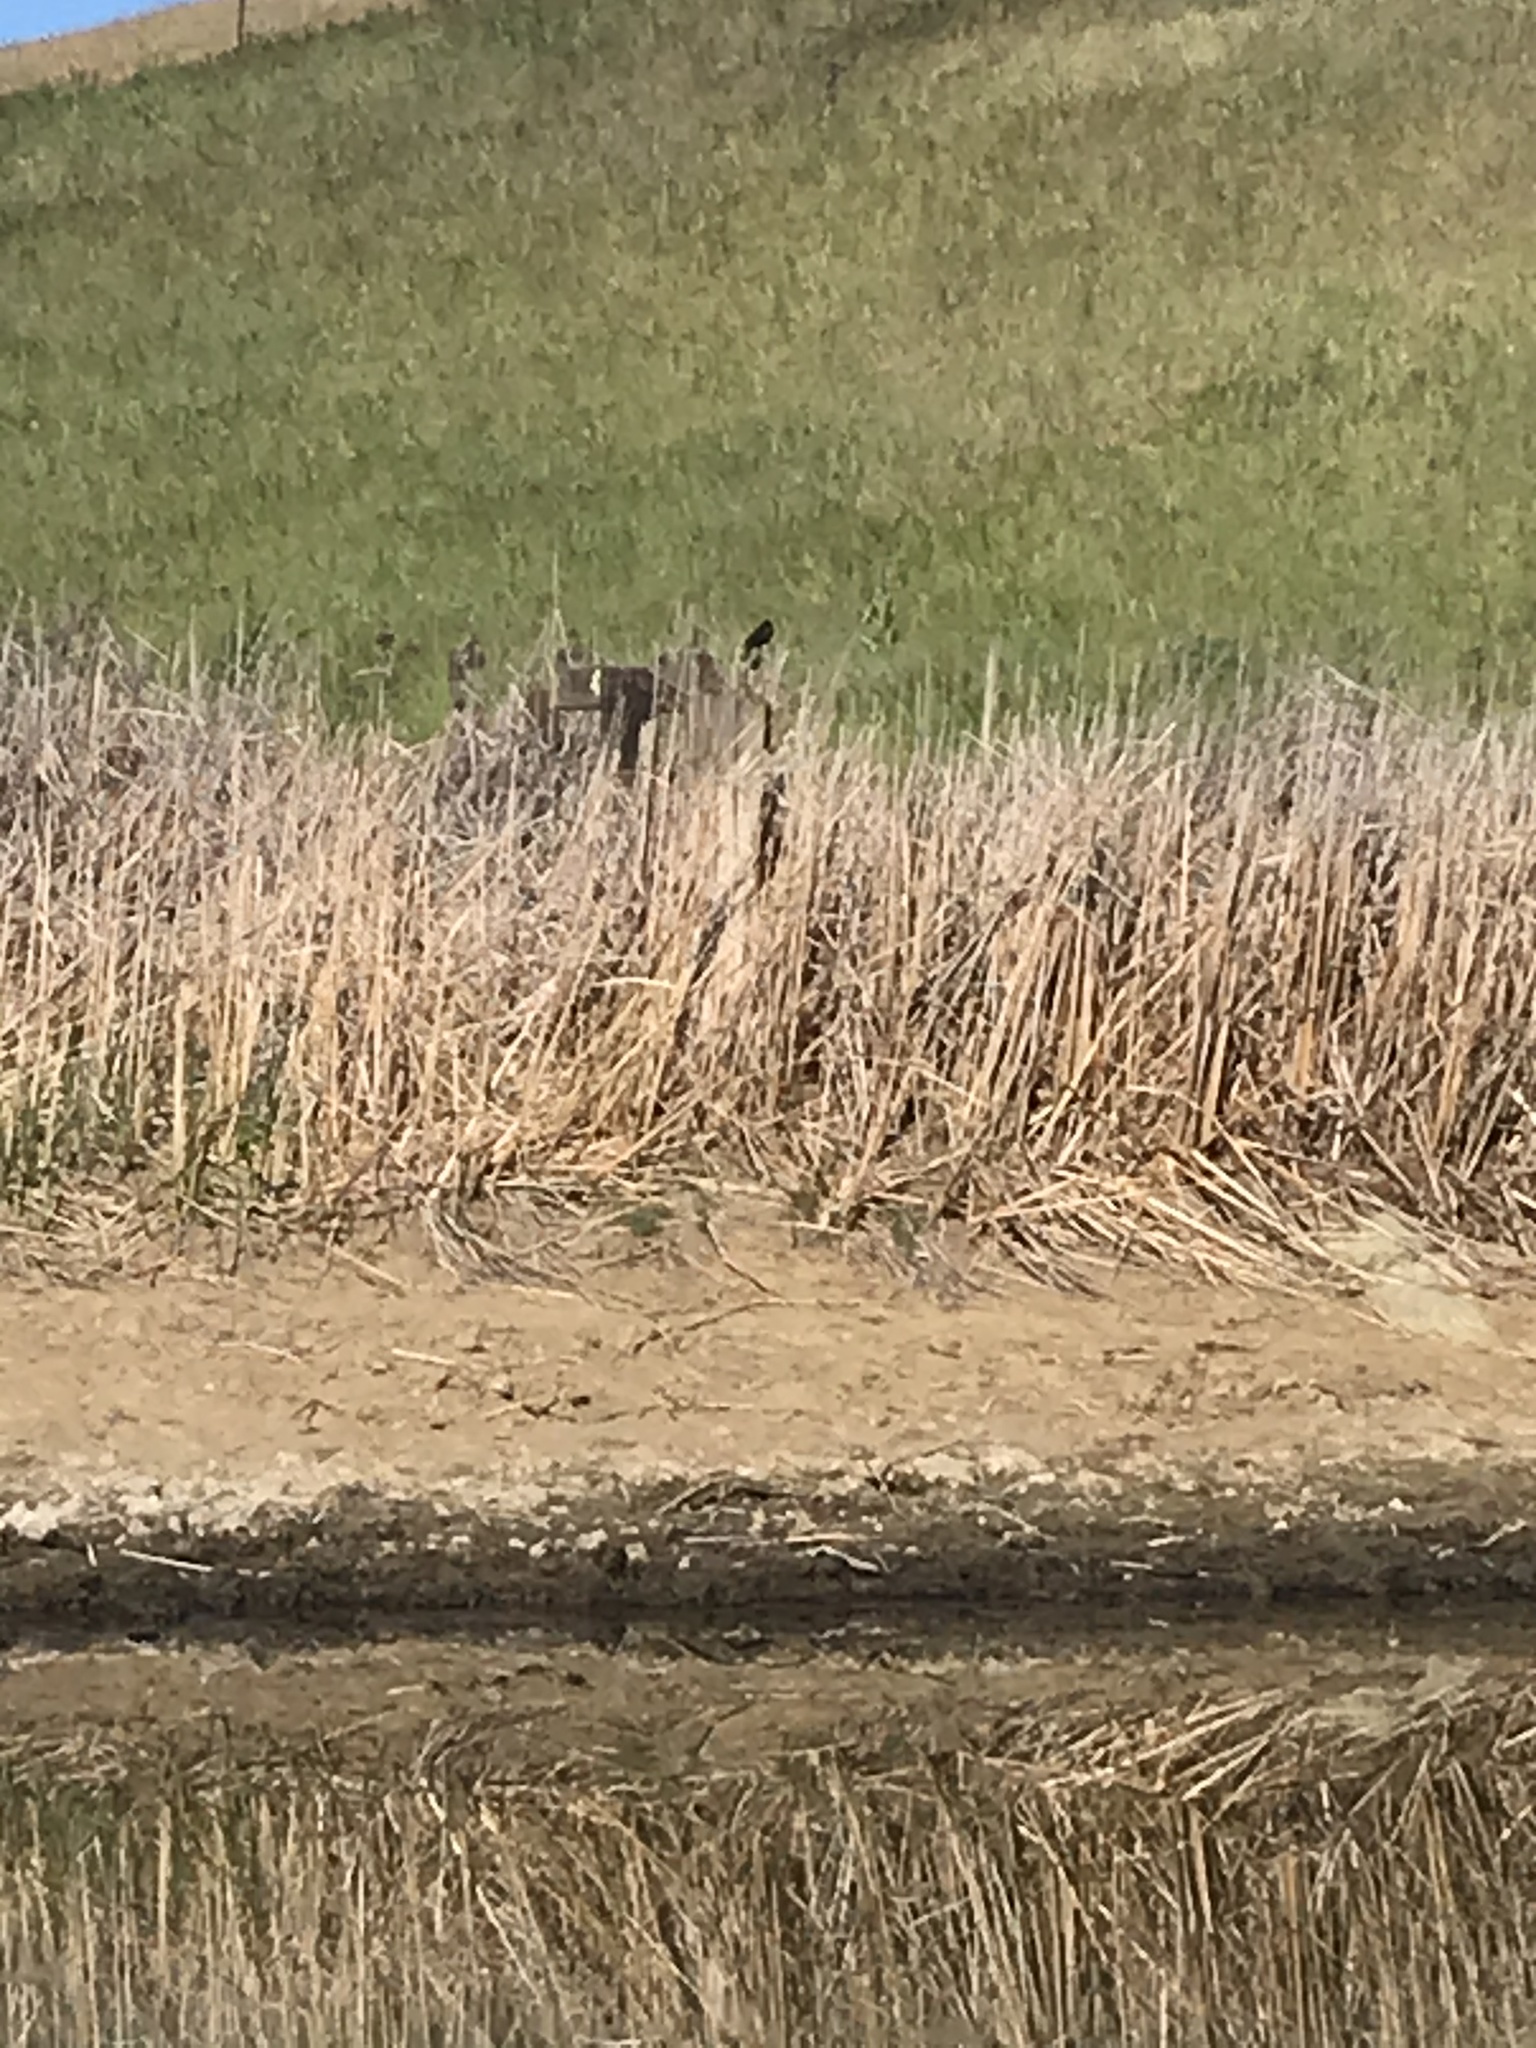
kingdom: Animalia
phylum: Chordata
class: Aves
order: Passeriformes
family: Icteridae
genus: Agelaius
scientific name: Agelaius phoeniceus
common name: Red-winged blackbird
